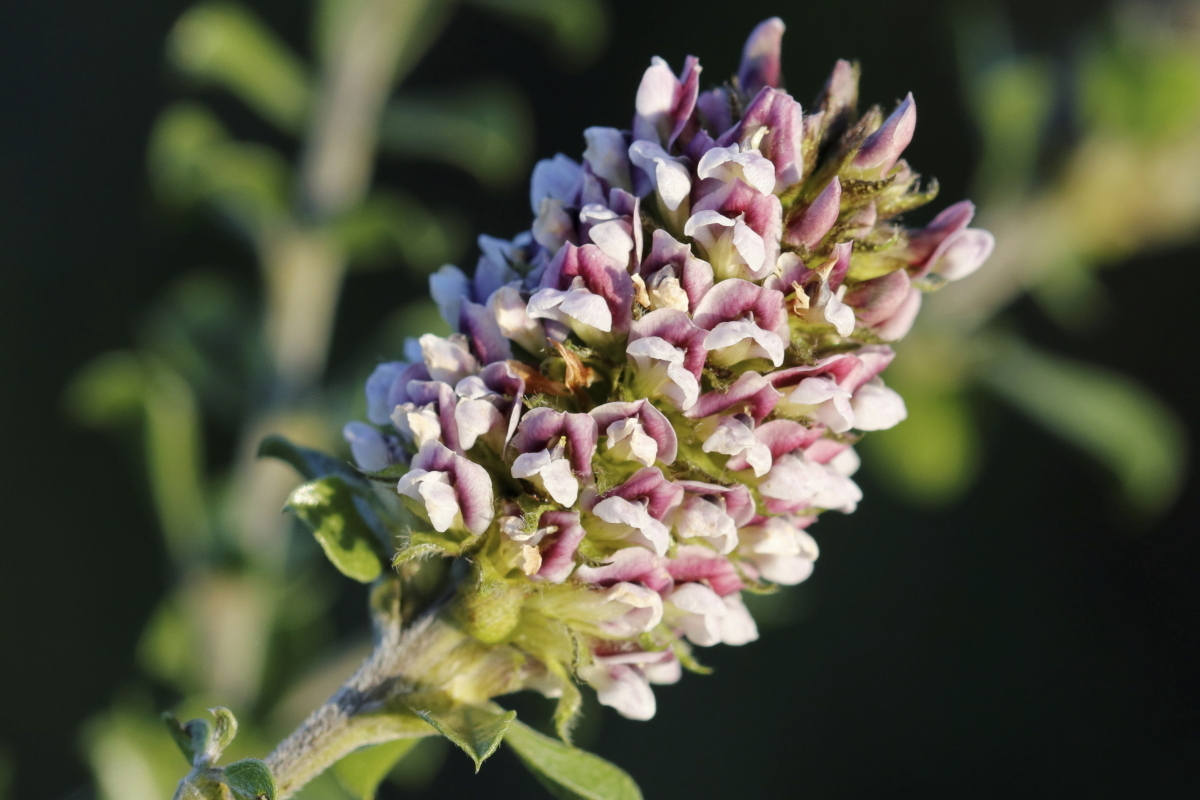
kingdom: Plantae
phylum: Tracheophyta
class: Magnoliopsida
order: Fabales
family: Fabaceae
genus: Psoralea
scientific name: Psoralea stachyera
